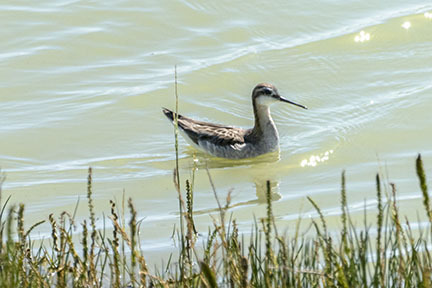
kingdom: Animalia
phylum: Chordata
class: Aves
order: Charadriiformes
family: Scolopacidae
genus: Phalaropus
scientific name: Phalaropus tricolor
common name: Wilson's phalarope
